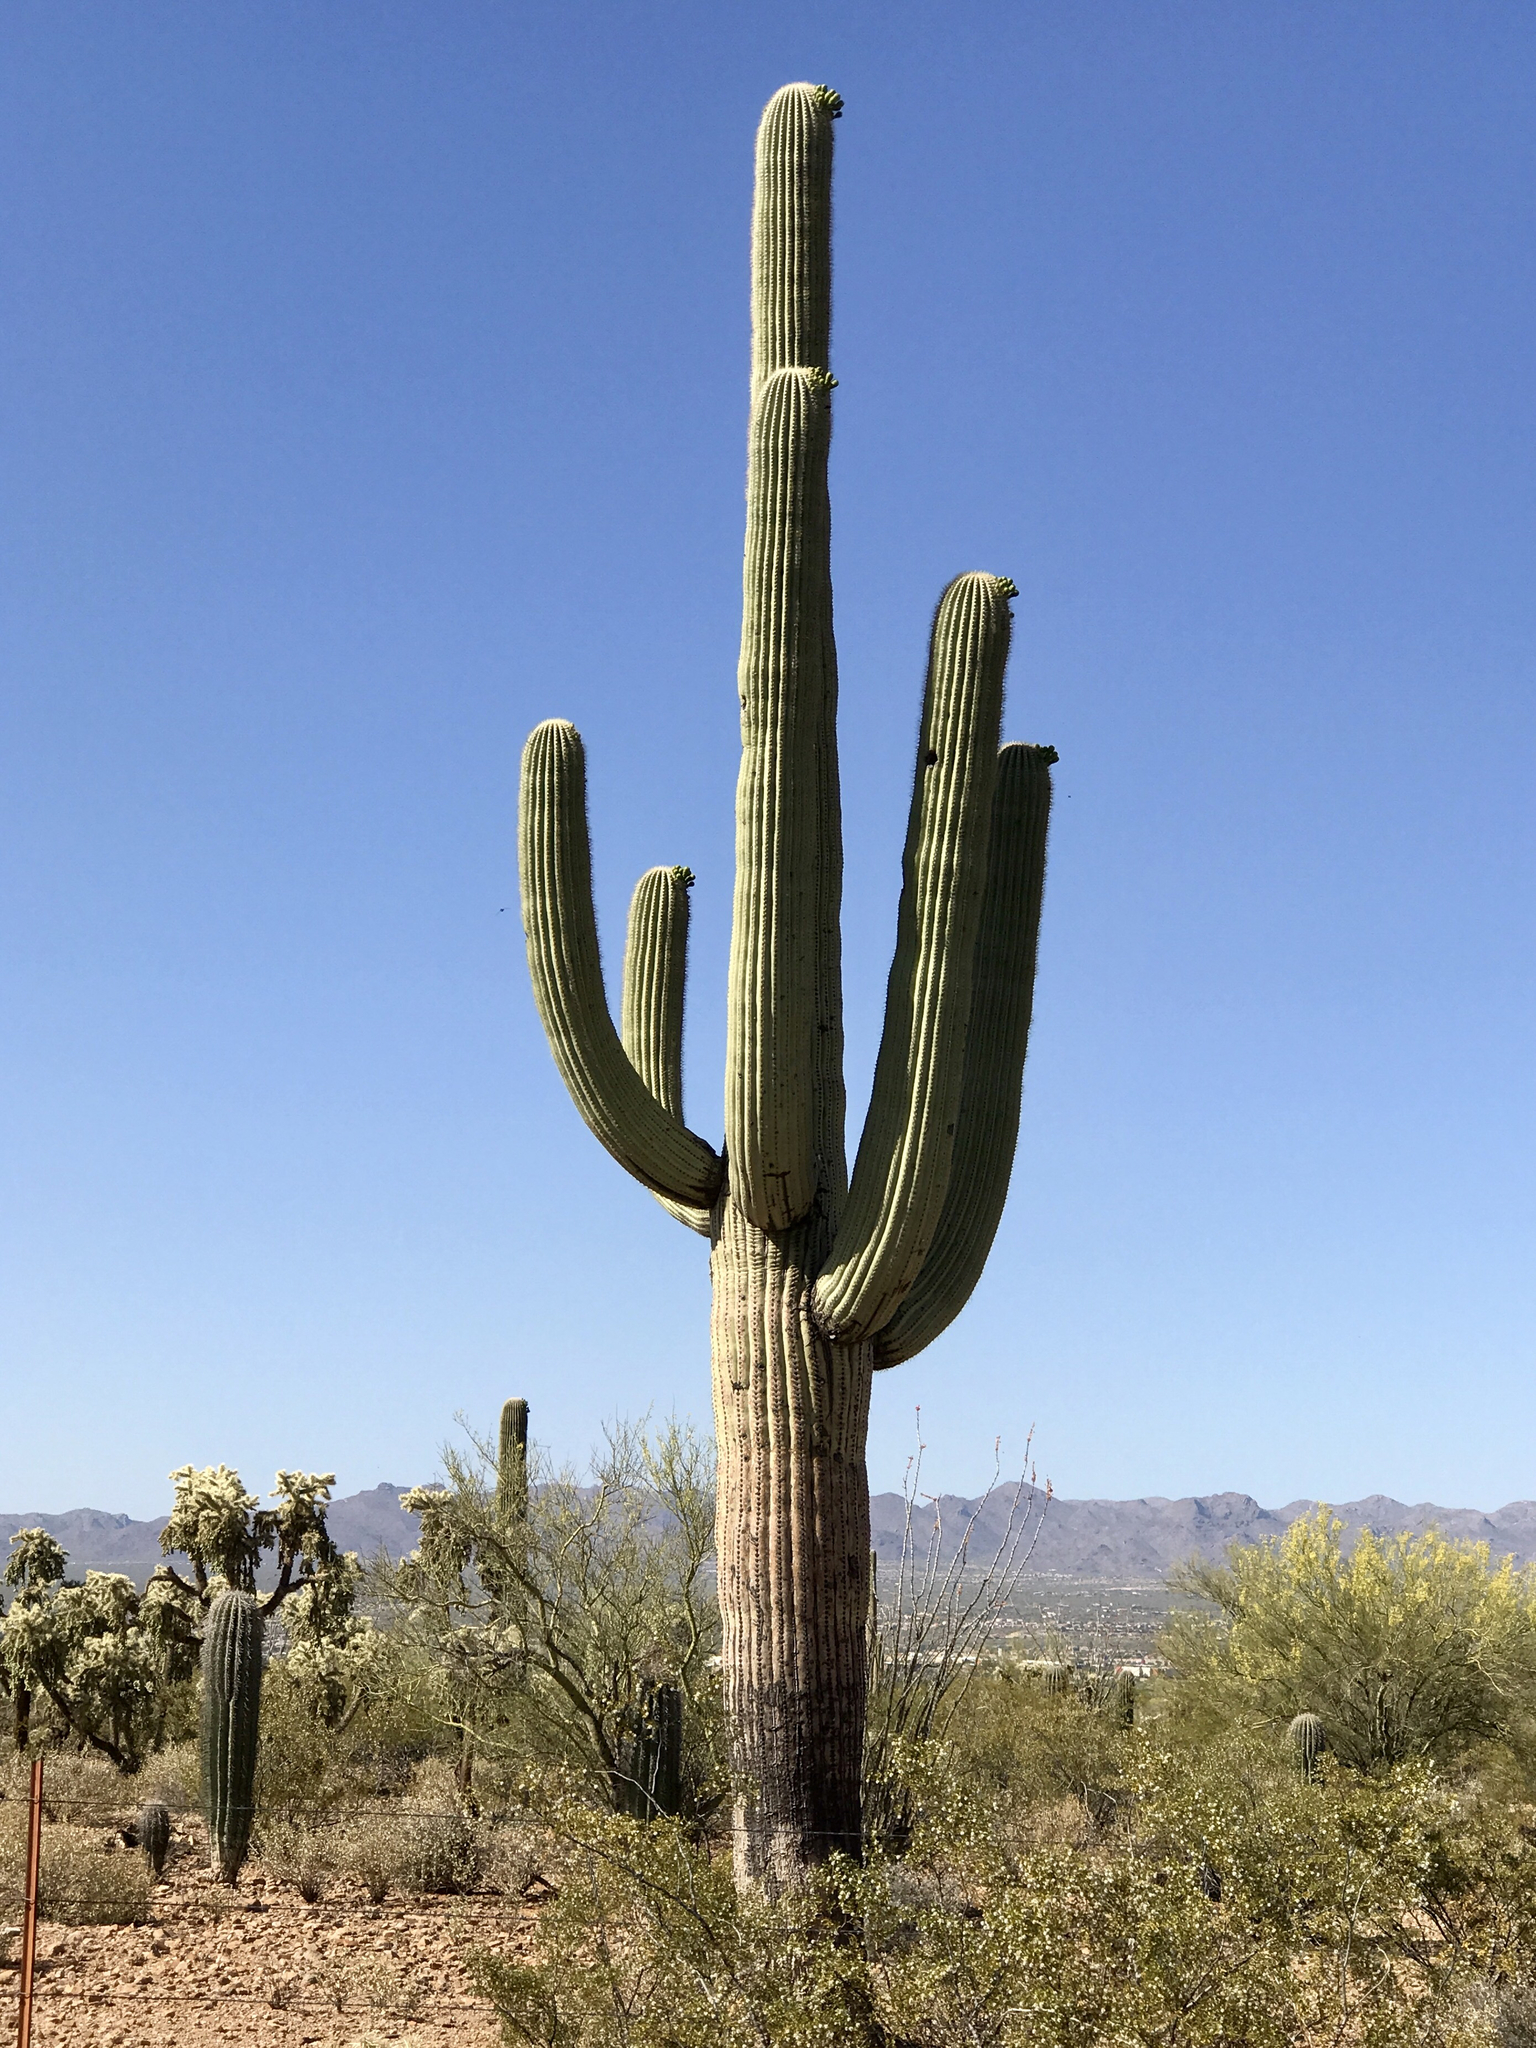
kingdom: Plantae
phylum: Tracheophyta
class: Magnoliopsida
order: Caryophyllales
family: Cactaceae
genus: Carnegiea
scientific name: Carnegiea gigantea
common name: Saguaro
